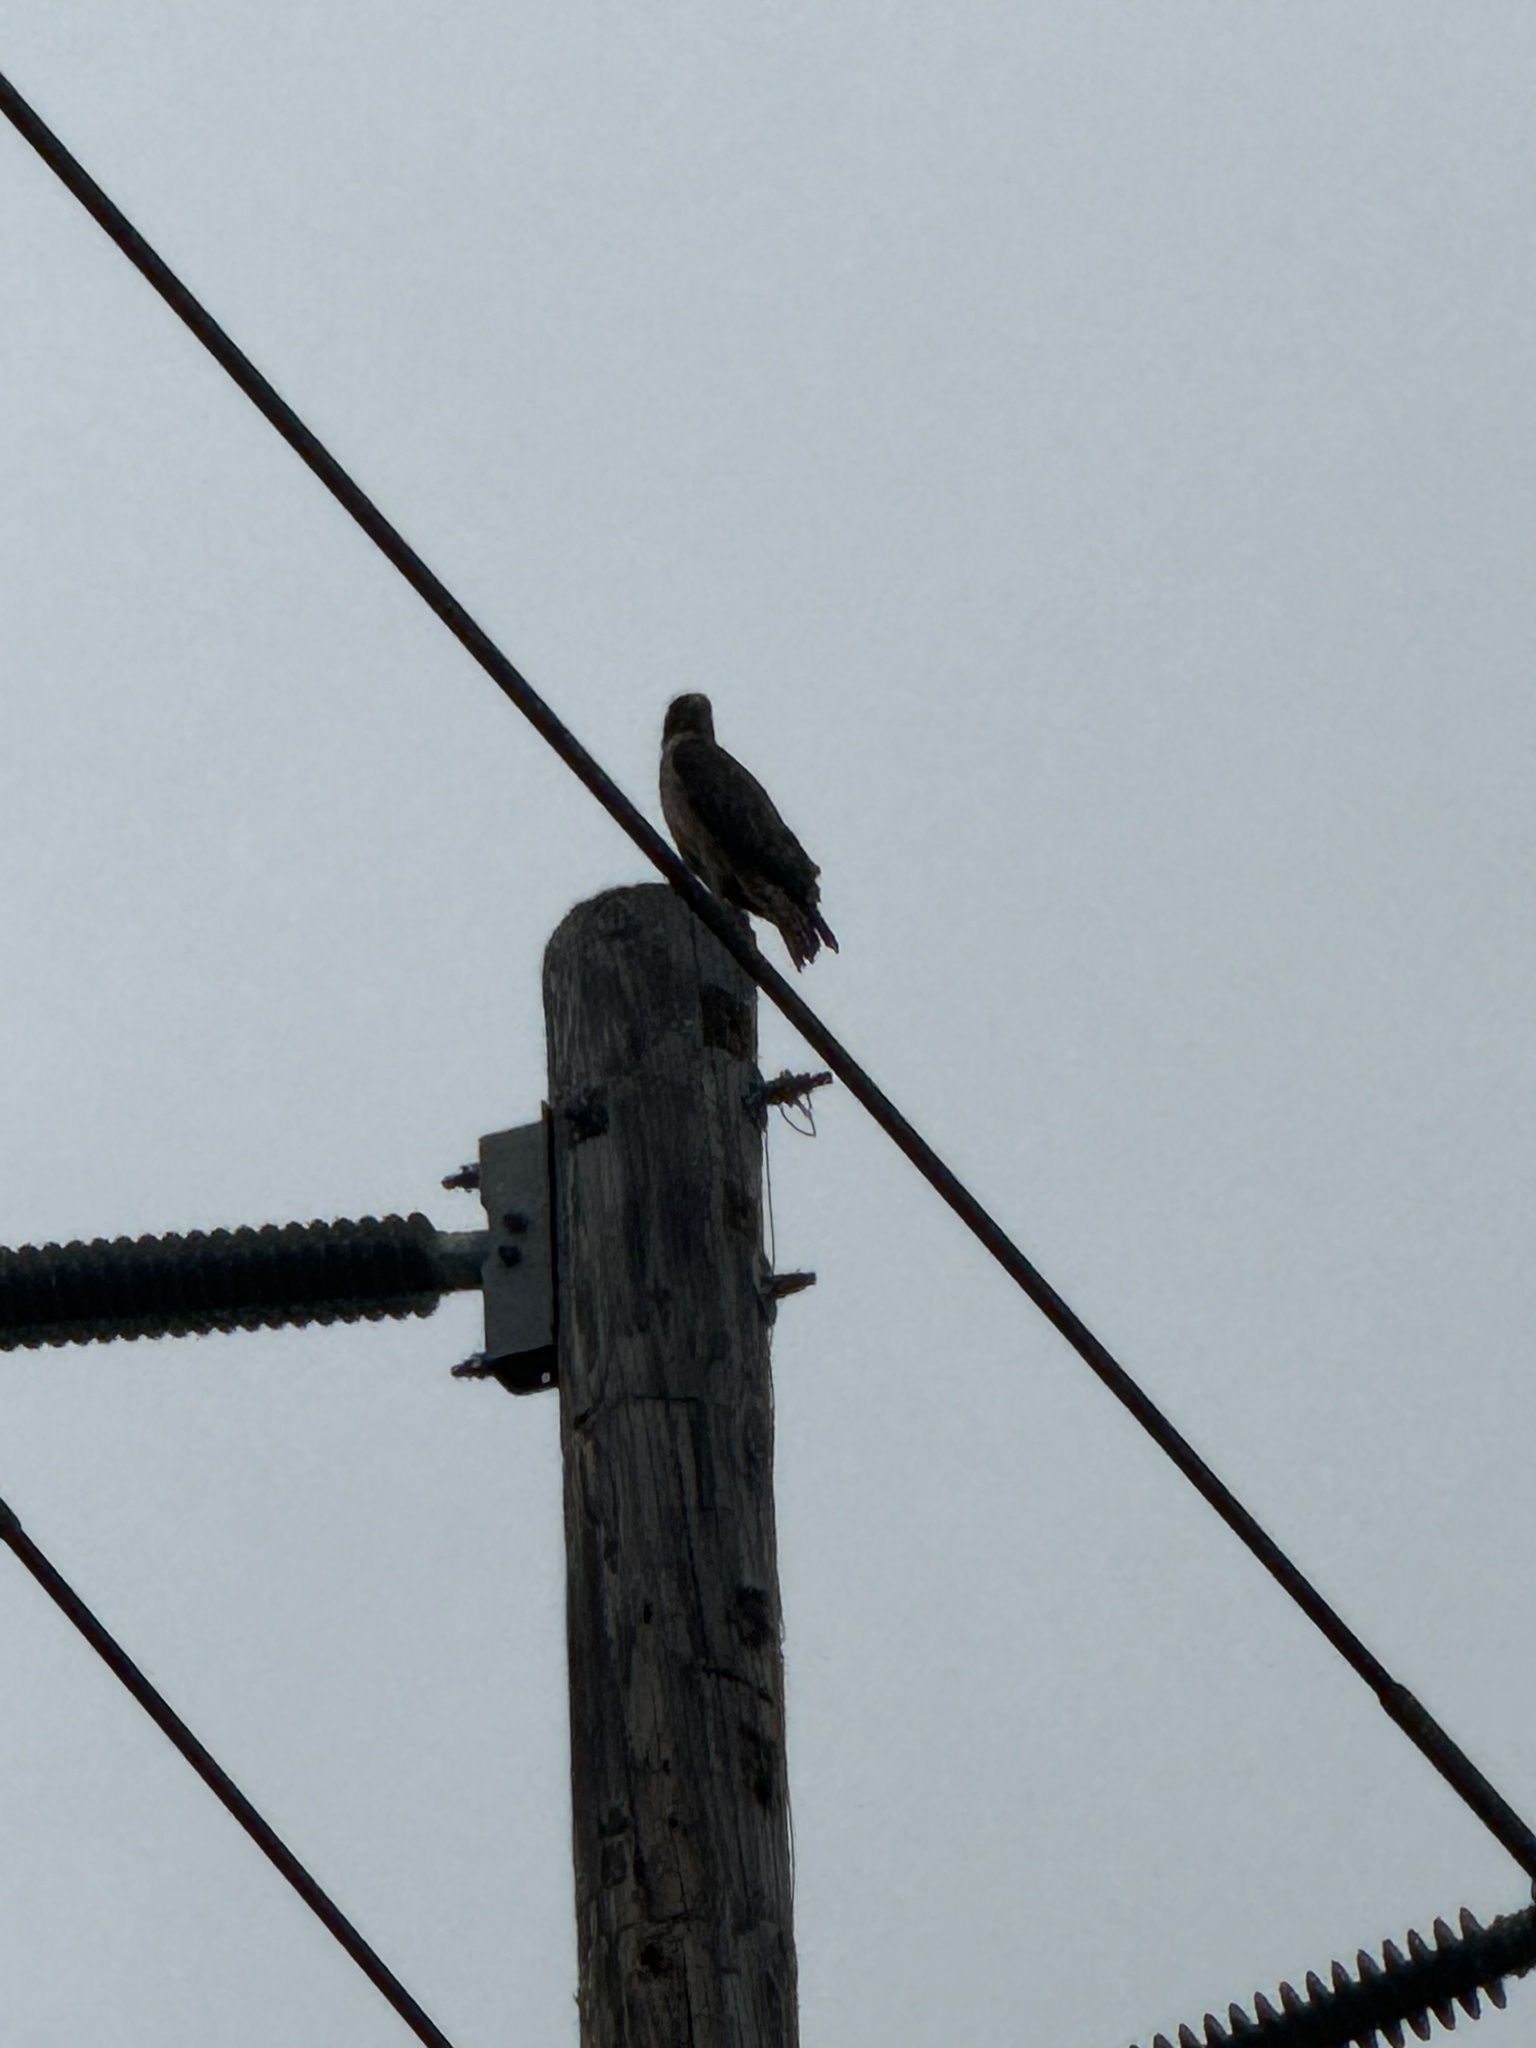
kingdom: Animalia
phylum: Chordata
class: Aves
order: Accipitriformes
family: Accipitridae
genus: Buteo
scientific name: Buteo jamaicensis
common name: Red-tailed hawk
